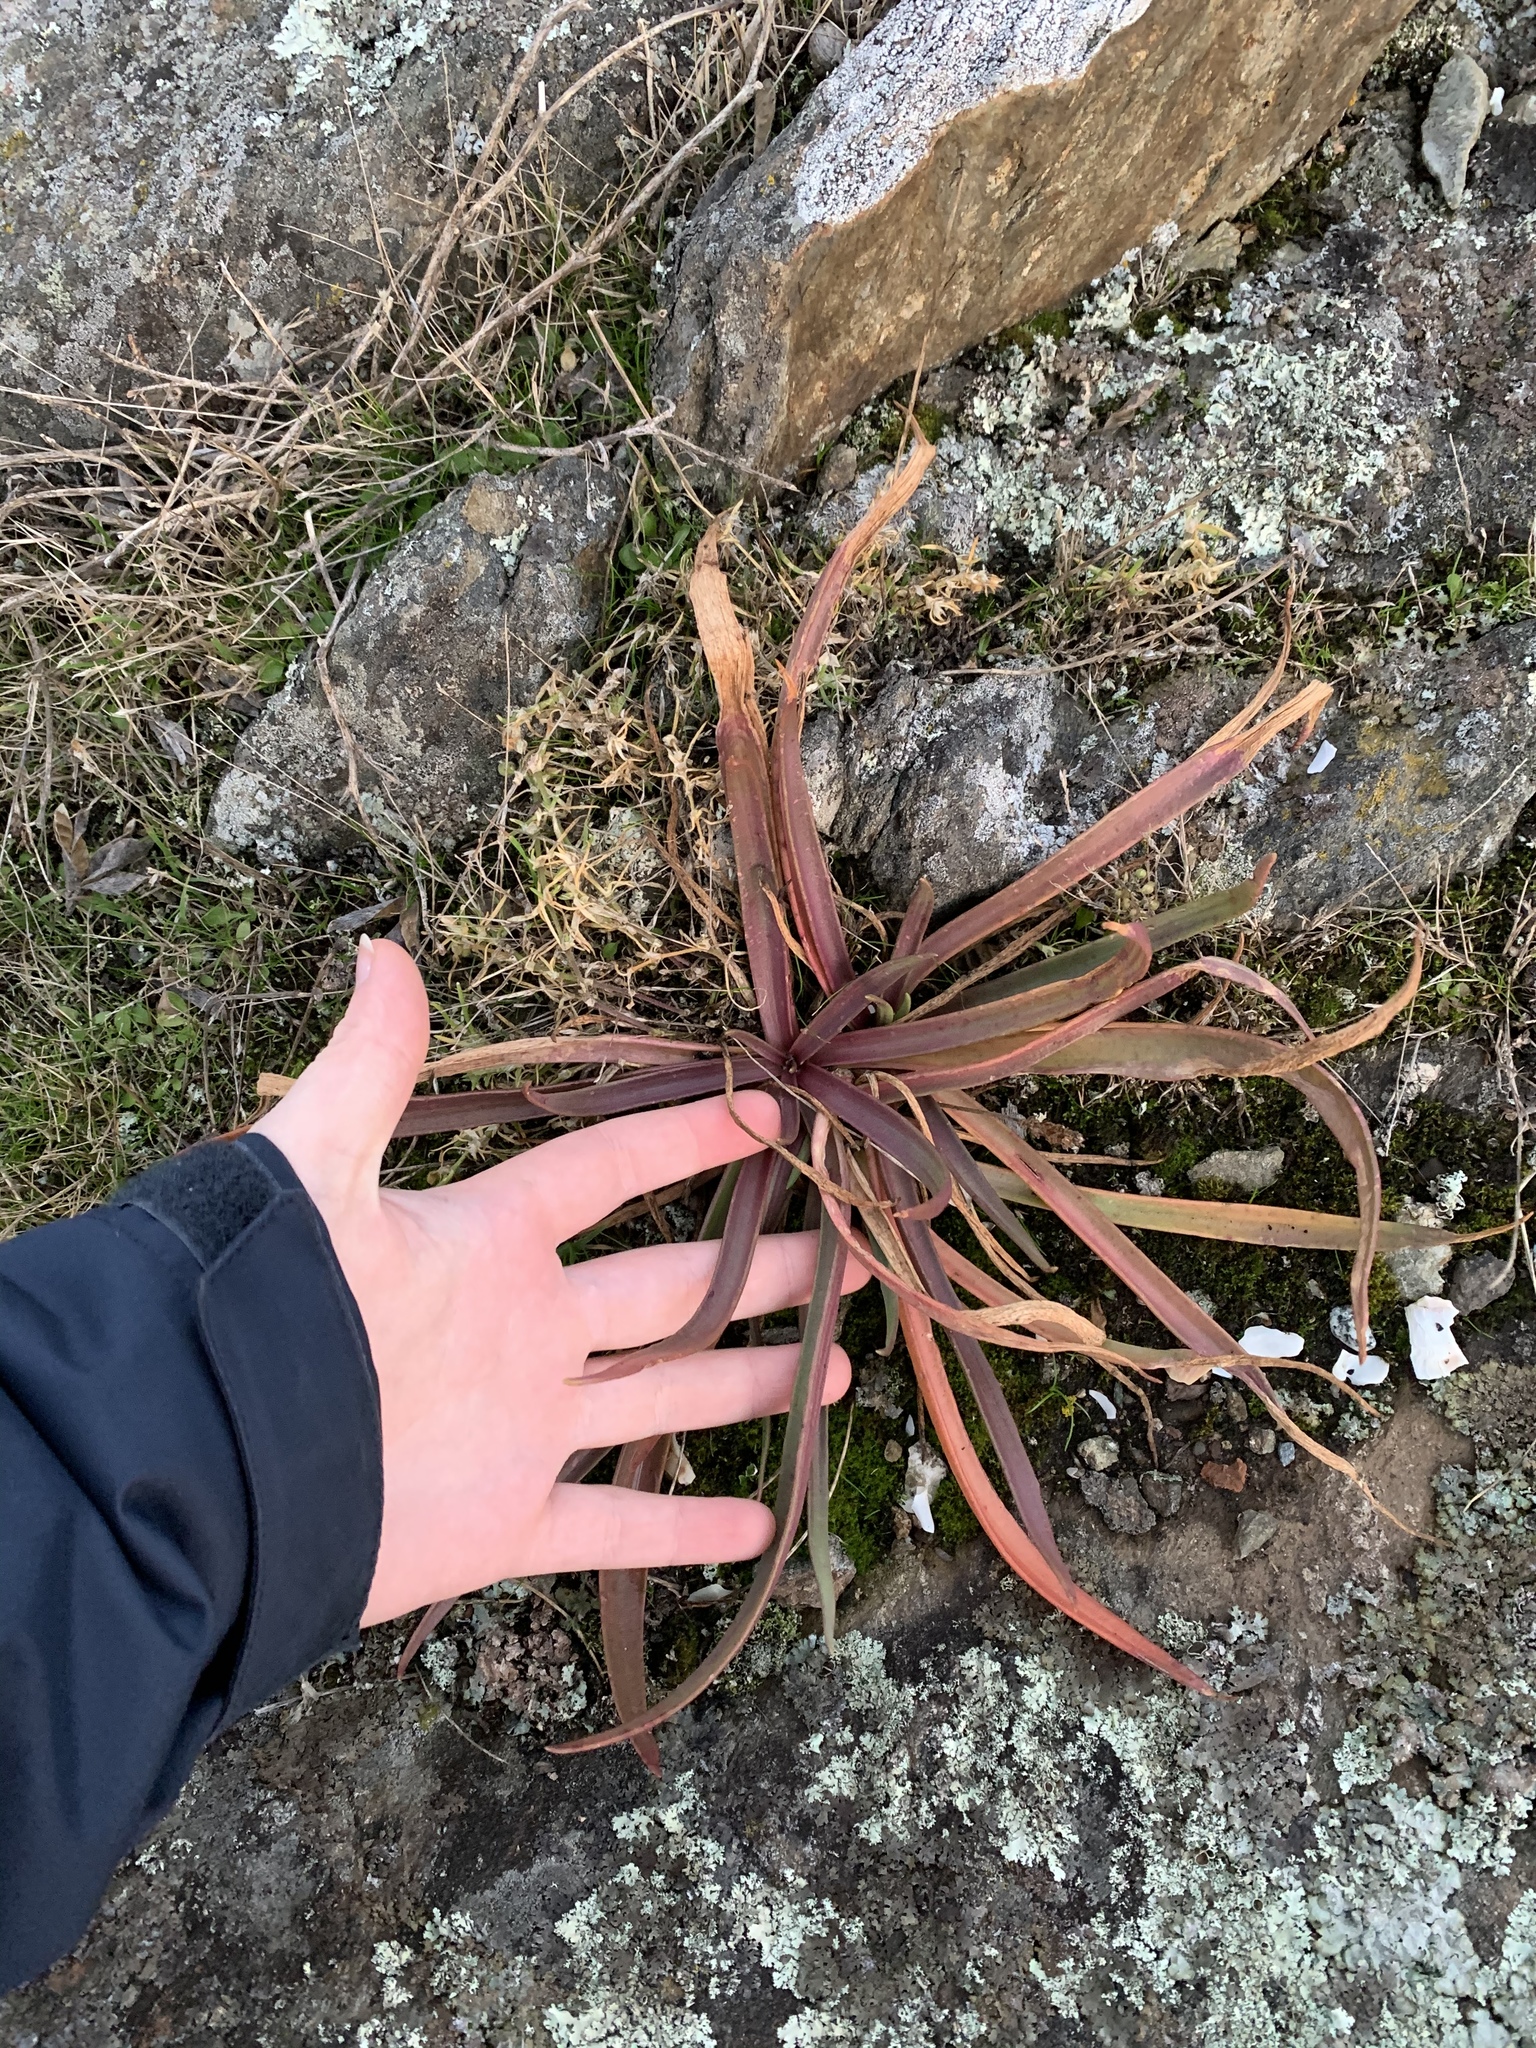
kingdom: Plantae
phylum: Tracheophyta
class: Magnoliopsida
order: Lamiales
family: Plantaginaceae
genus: Plantago
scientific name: Plantago maritima
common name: Sea plantain
